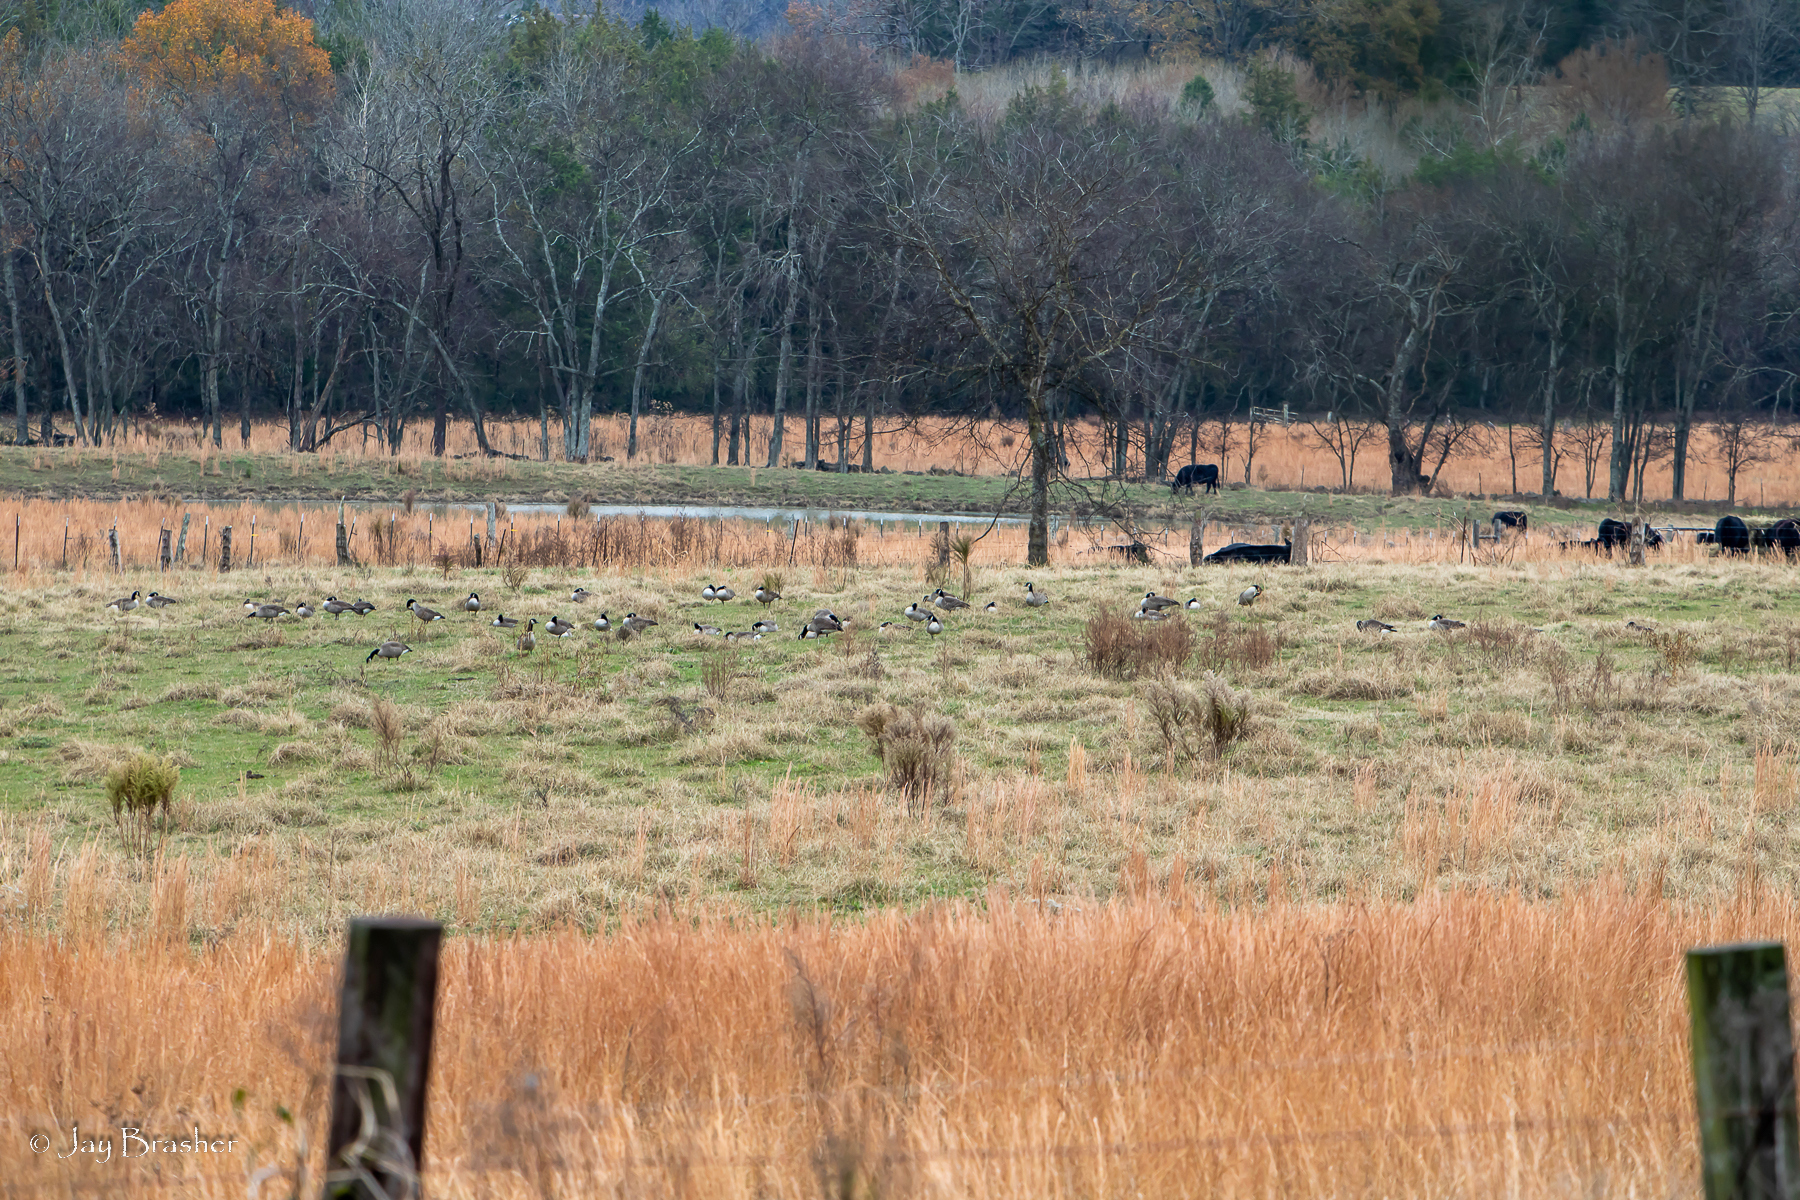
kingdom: Animalia
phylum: Chordata
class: Aves
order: Anseriformes
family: Anatidae
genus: Branta
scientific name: Branta canadensis
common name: Canada goose
